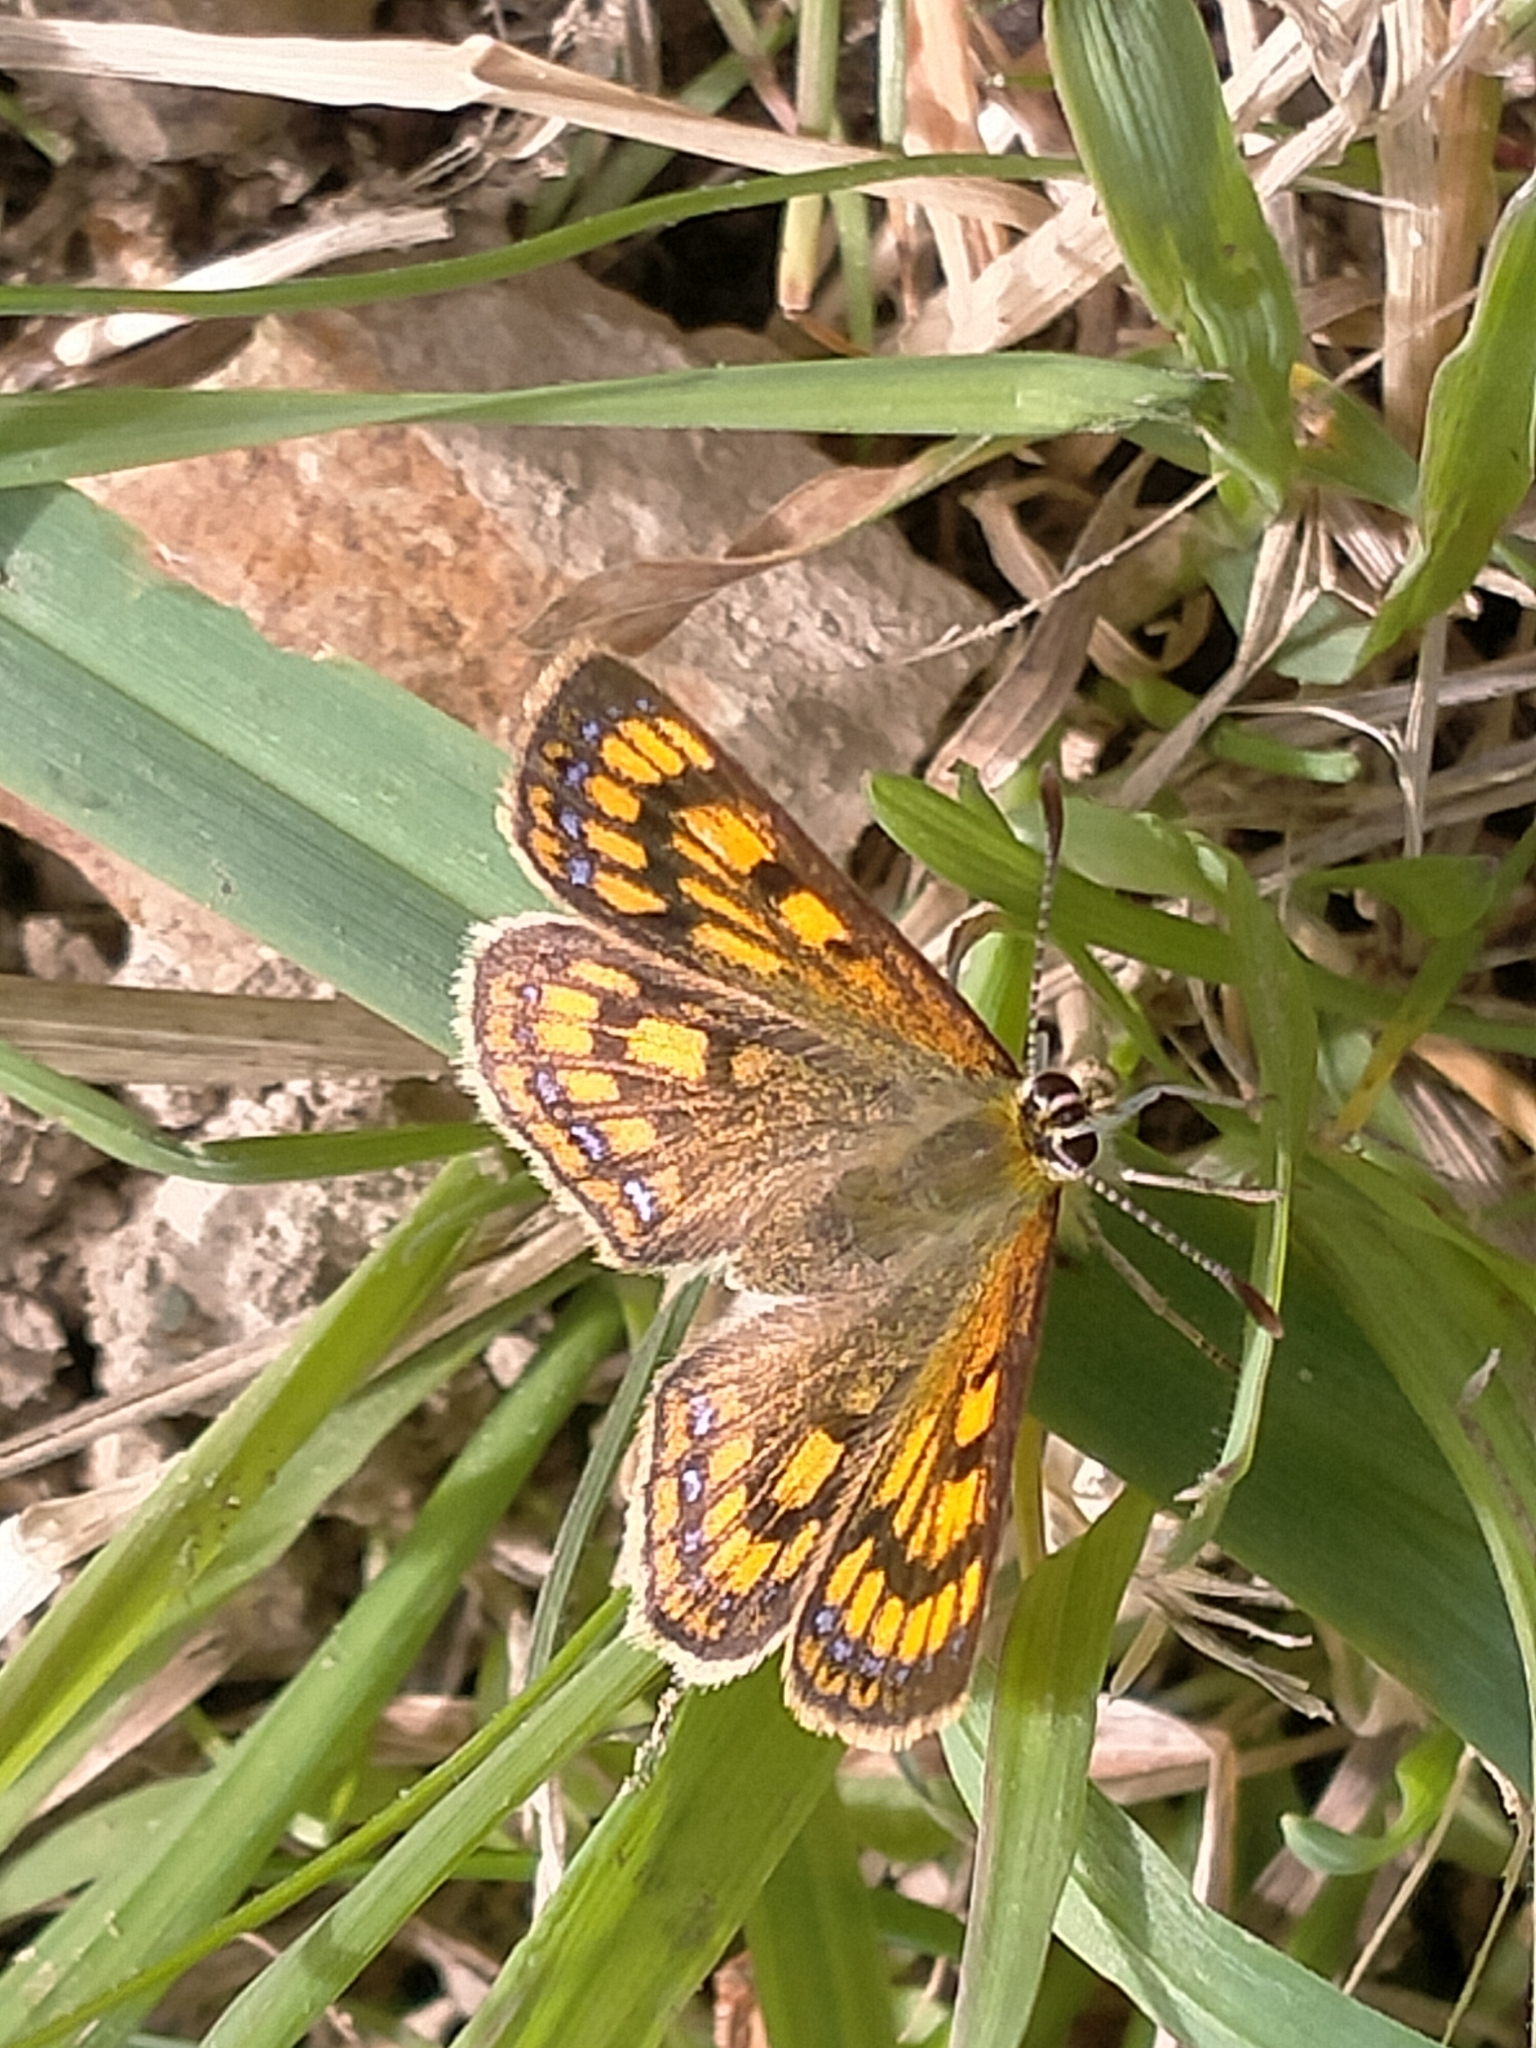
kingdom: Animalia
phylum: Arthropoda
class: Insecta
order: Lepidoptera
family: Lycaenidae
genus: Lycaena
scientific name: Lycaena salustius
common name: North island coastal copper
